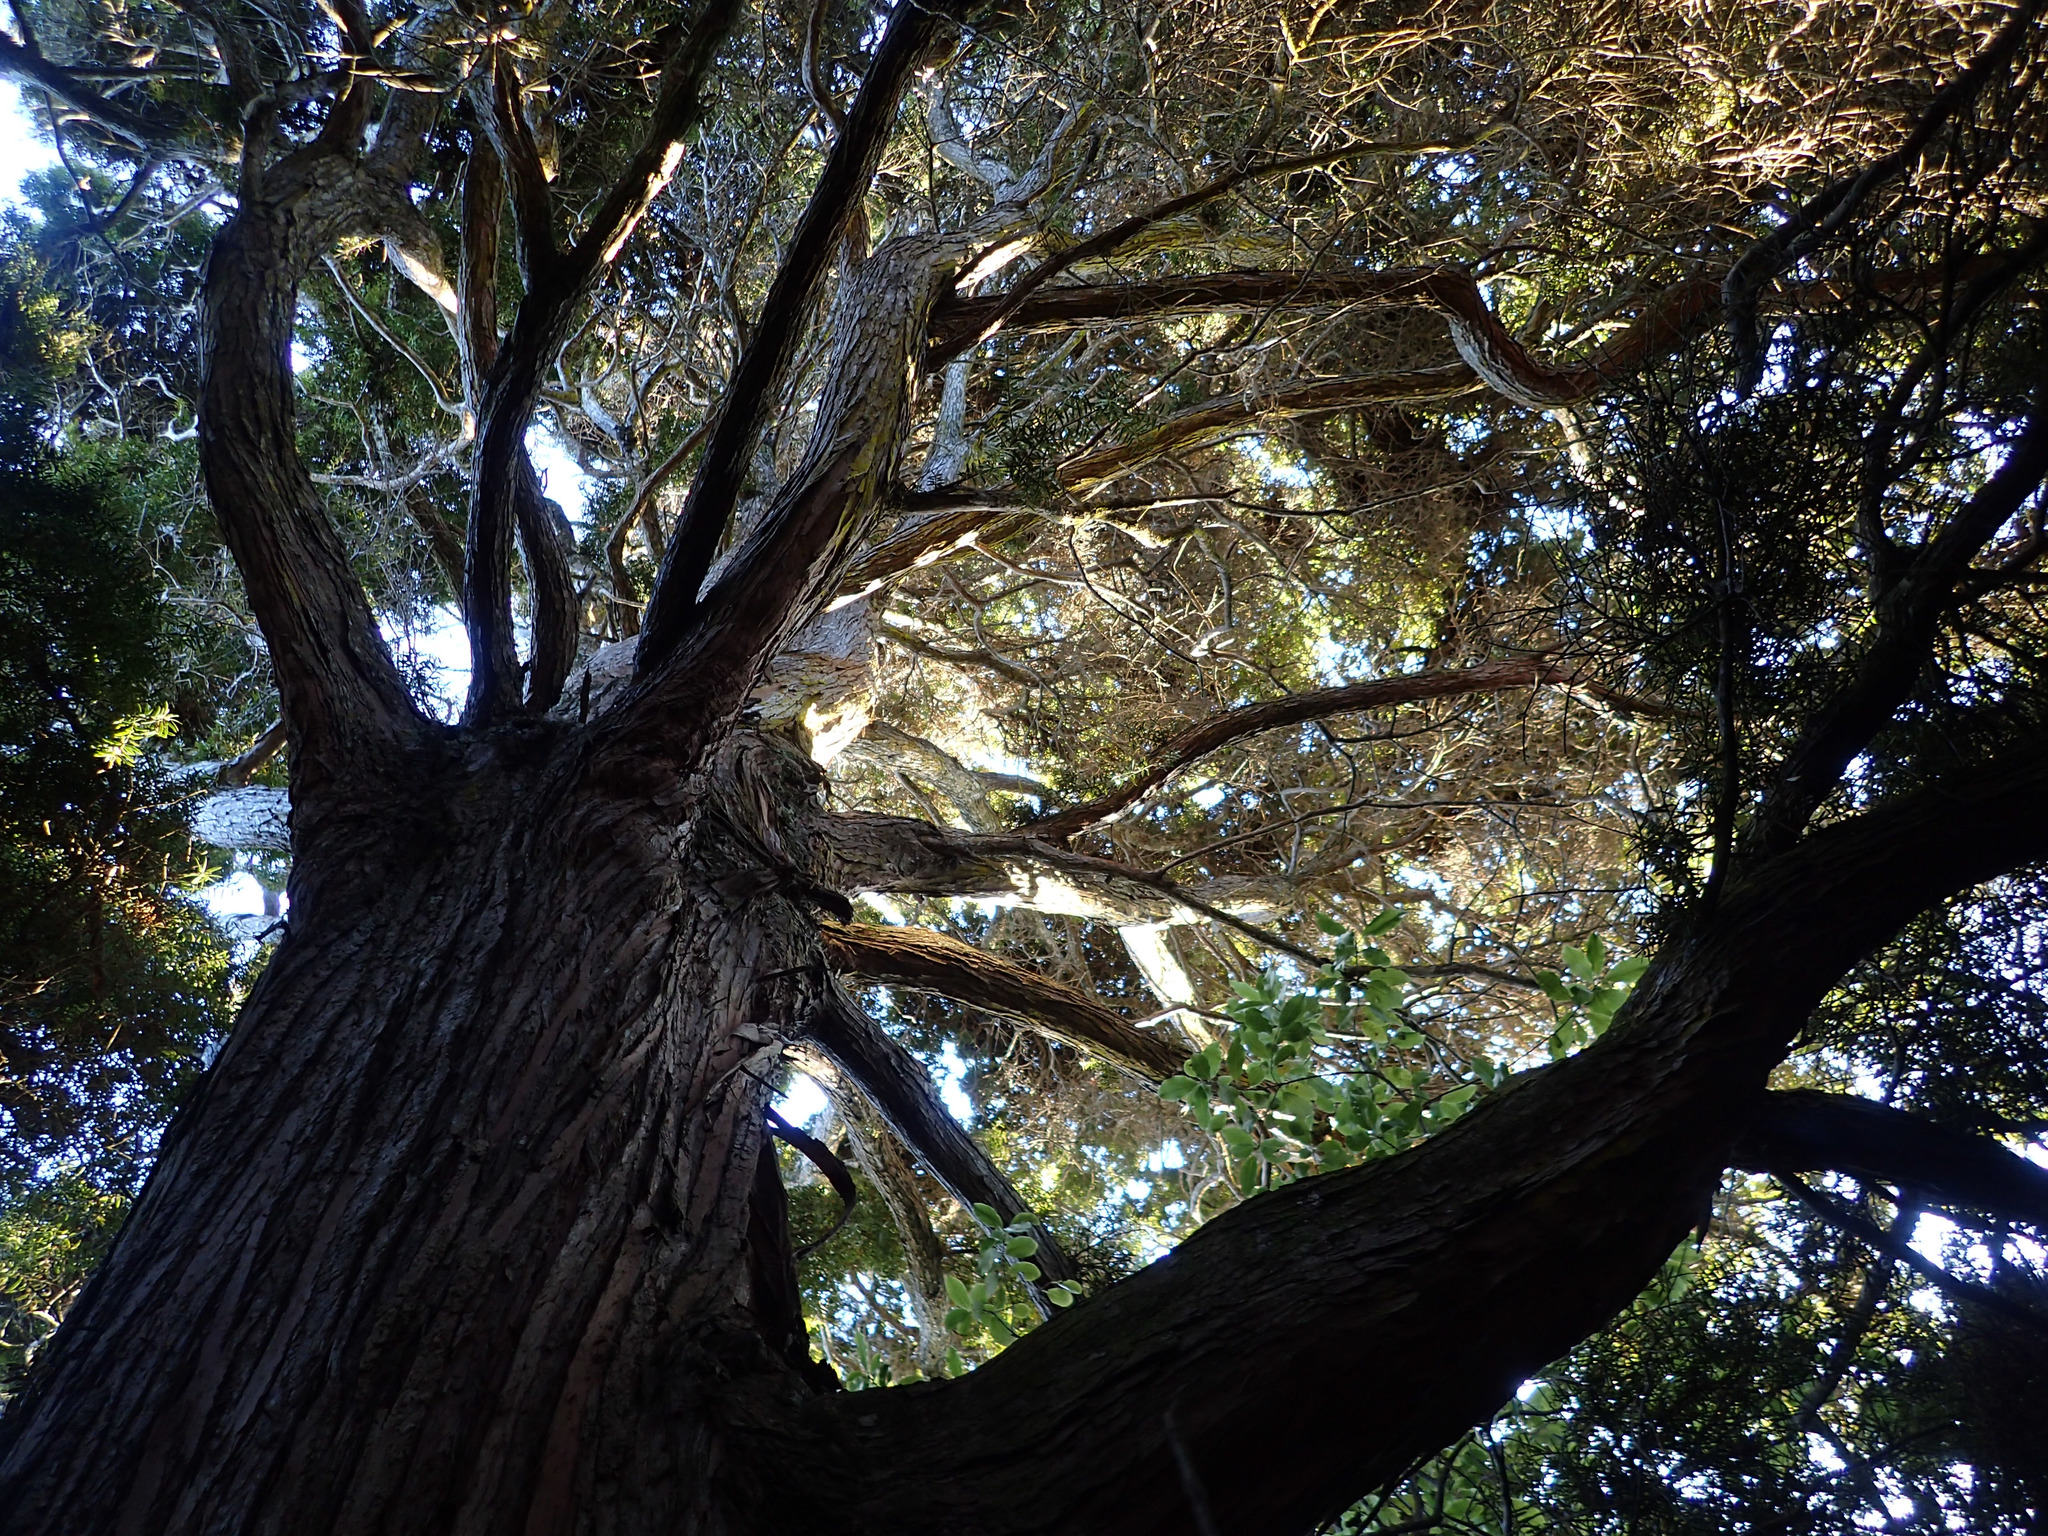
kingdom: Plantae
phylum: Tracheophyta
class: Pinopsida
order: Pinales
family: Podocarpaceae
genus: Podocarpus
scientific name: Podocarpus totara
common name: Totara
